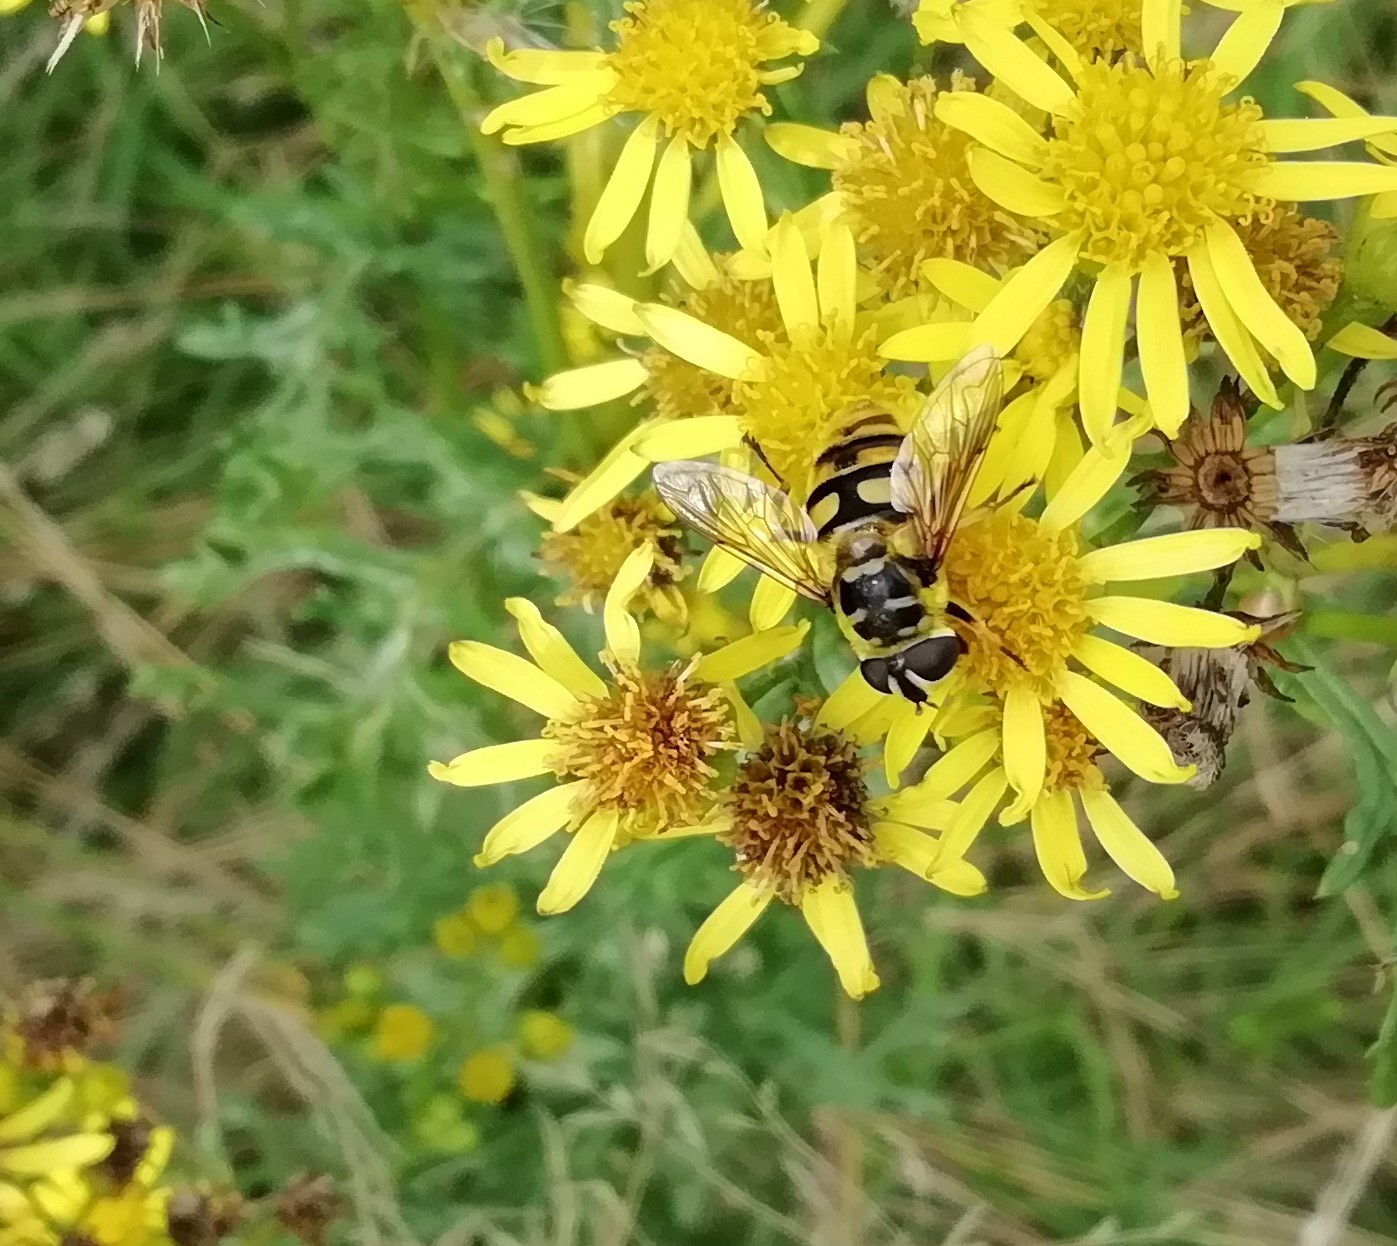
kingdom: Animalia
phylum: Arthropoda
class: Insecta
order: Diptera
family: Syrphidae
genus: Myathropa
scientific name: Myathropa florea
